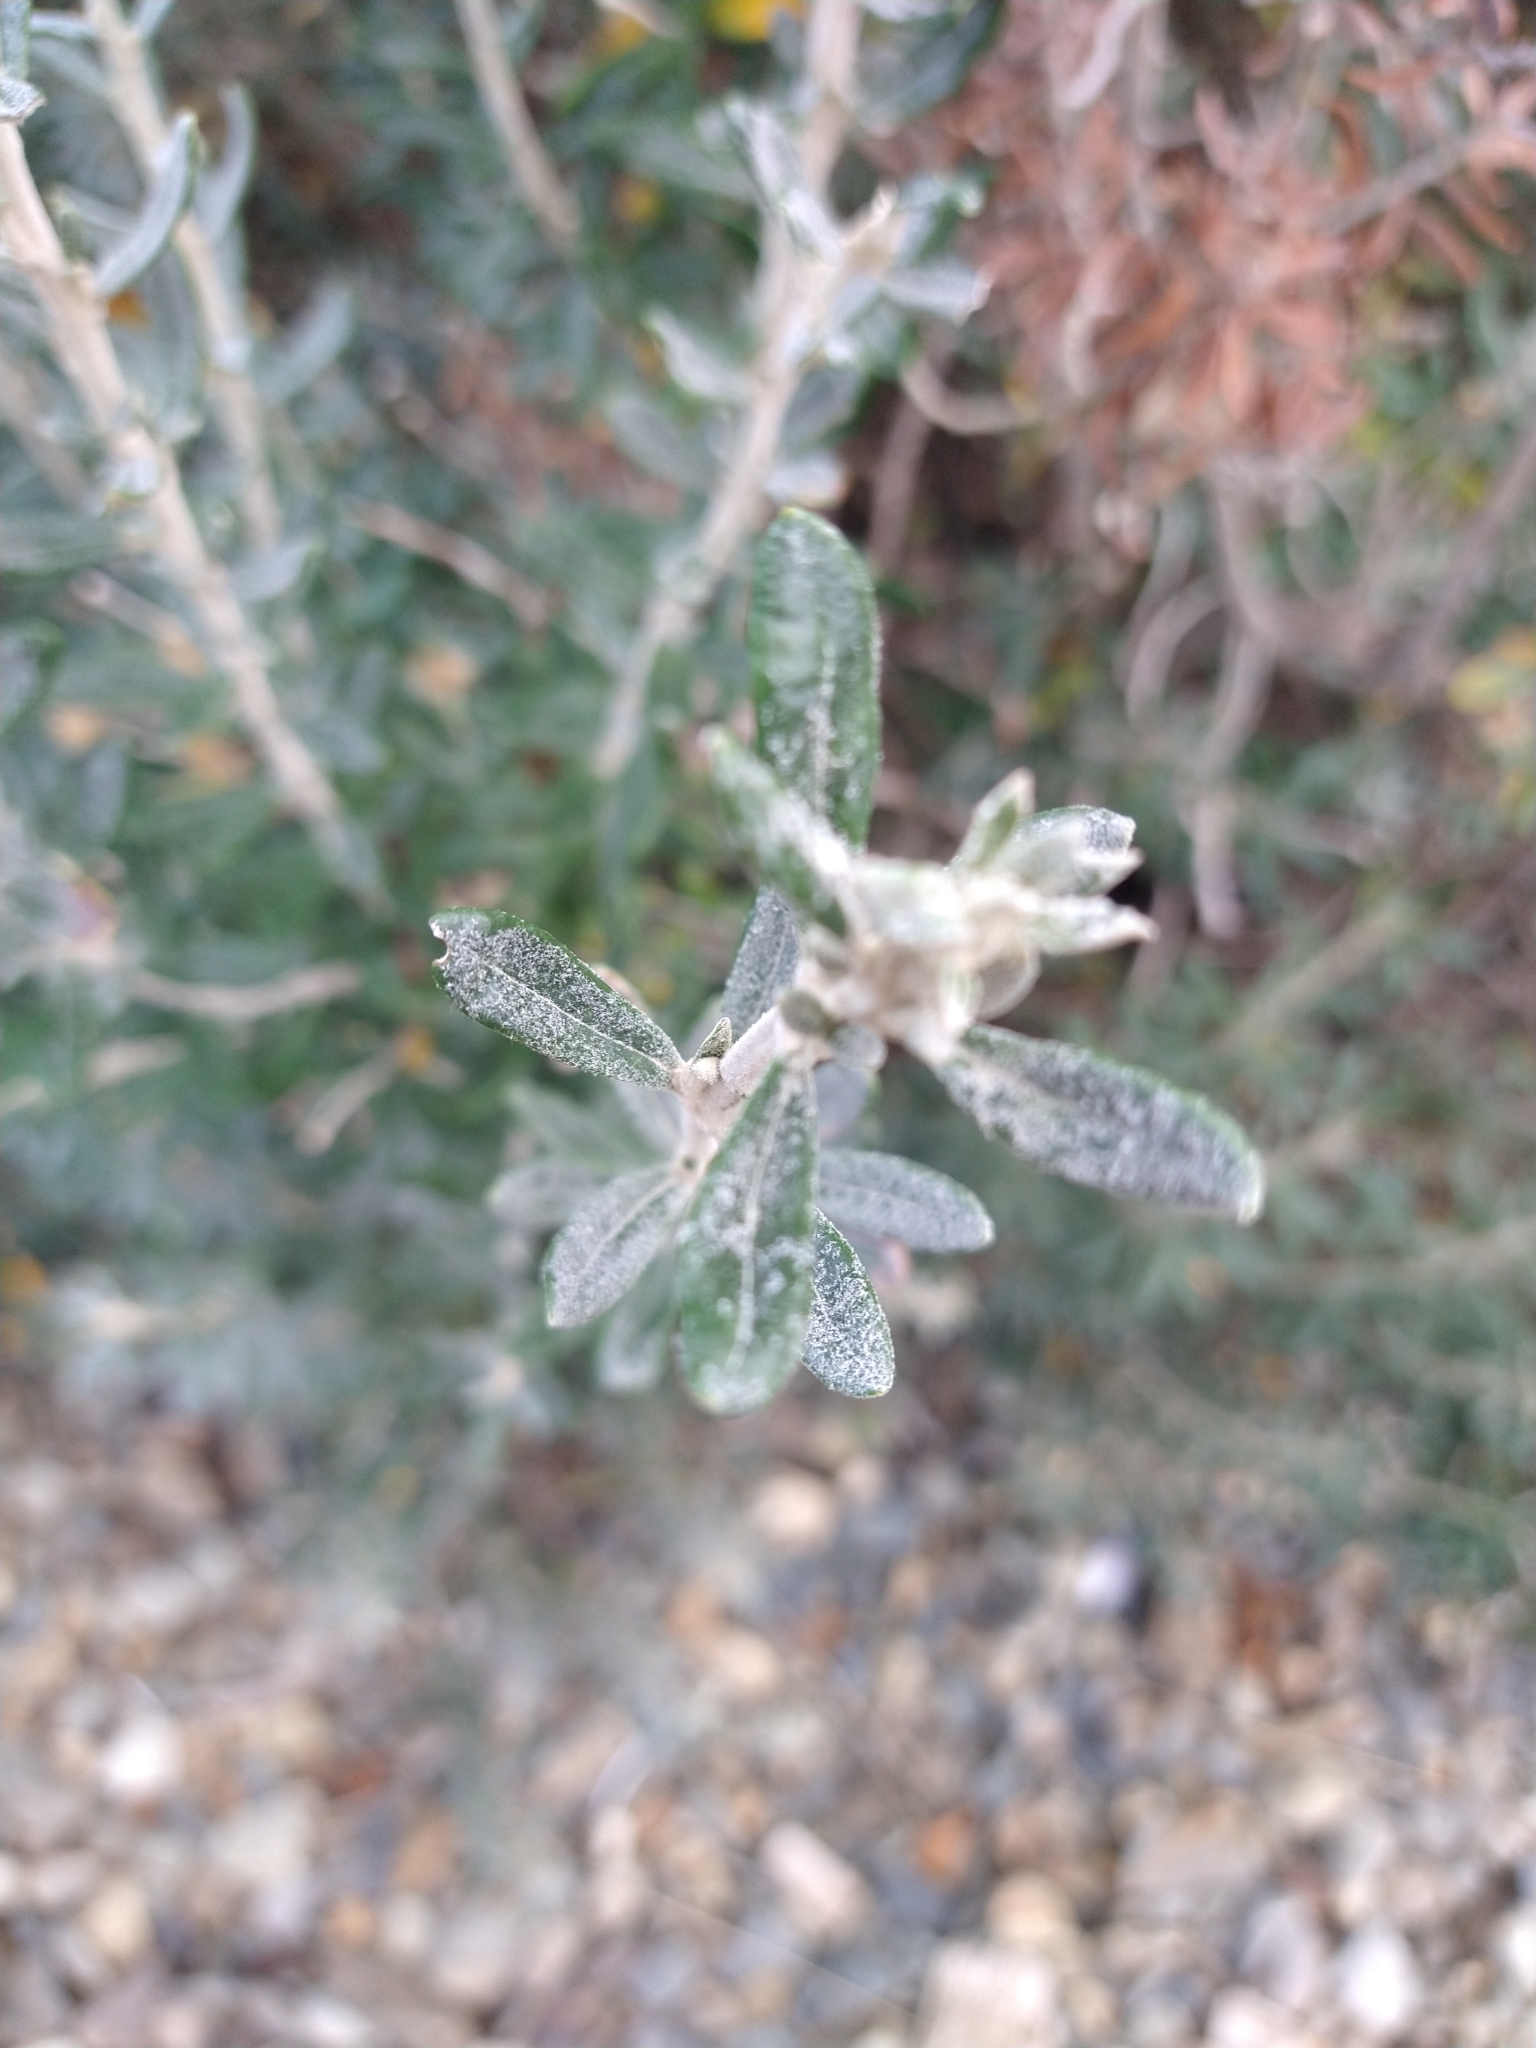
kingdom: Plantae
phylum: Tracheophyta
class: Magnoliopsida
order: Asterales
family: Asteraceae
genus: Chiliotrichum
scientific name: Chiliotrichum diffusum
